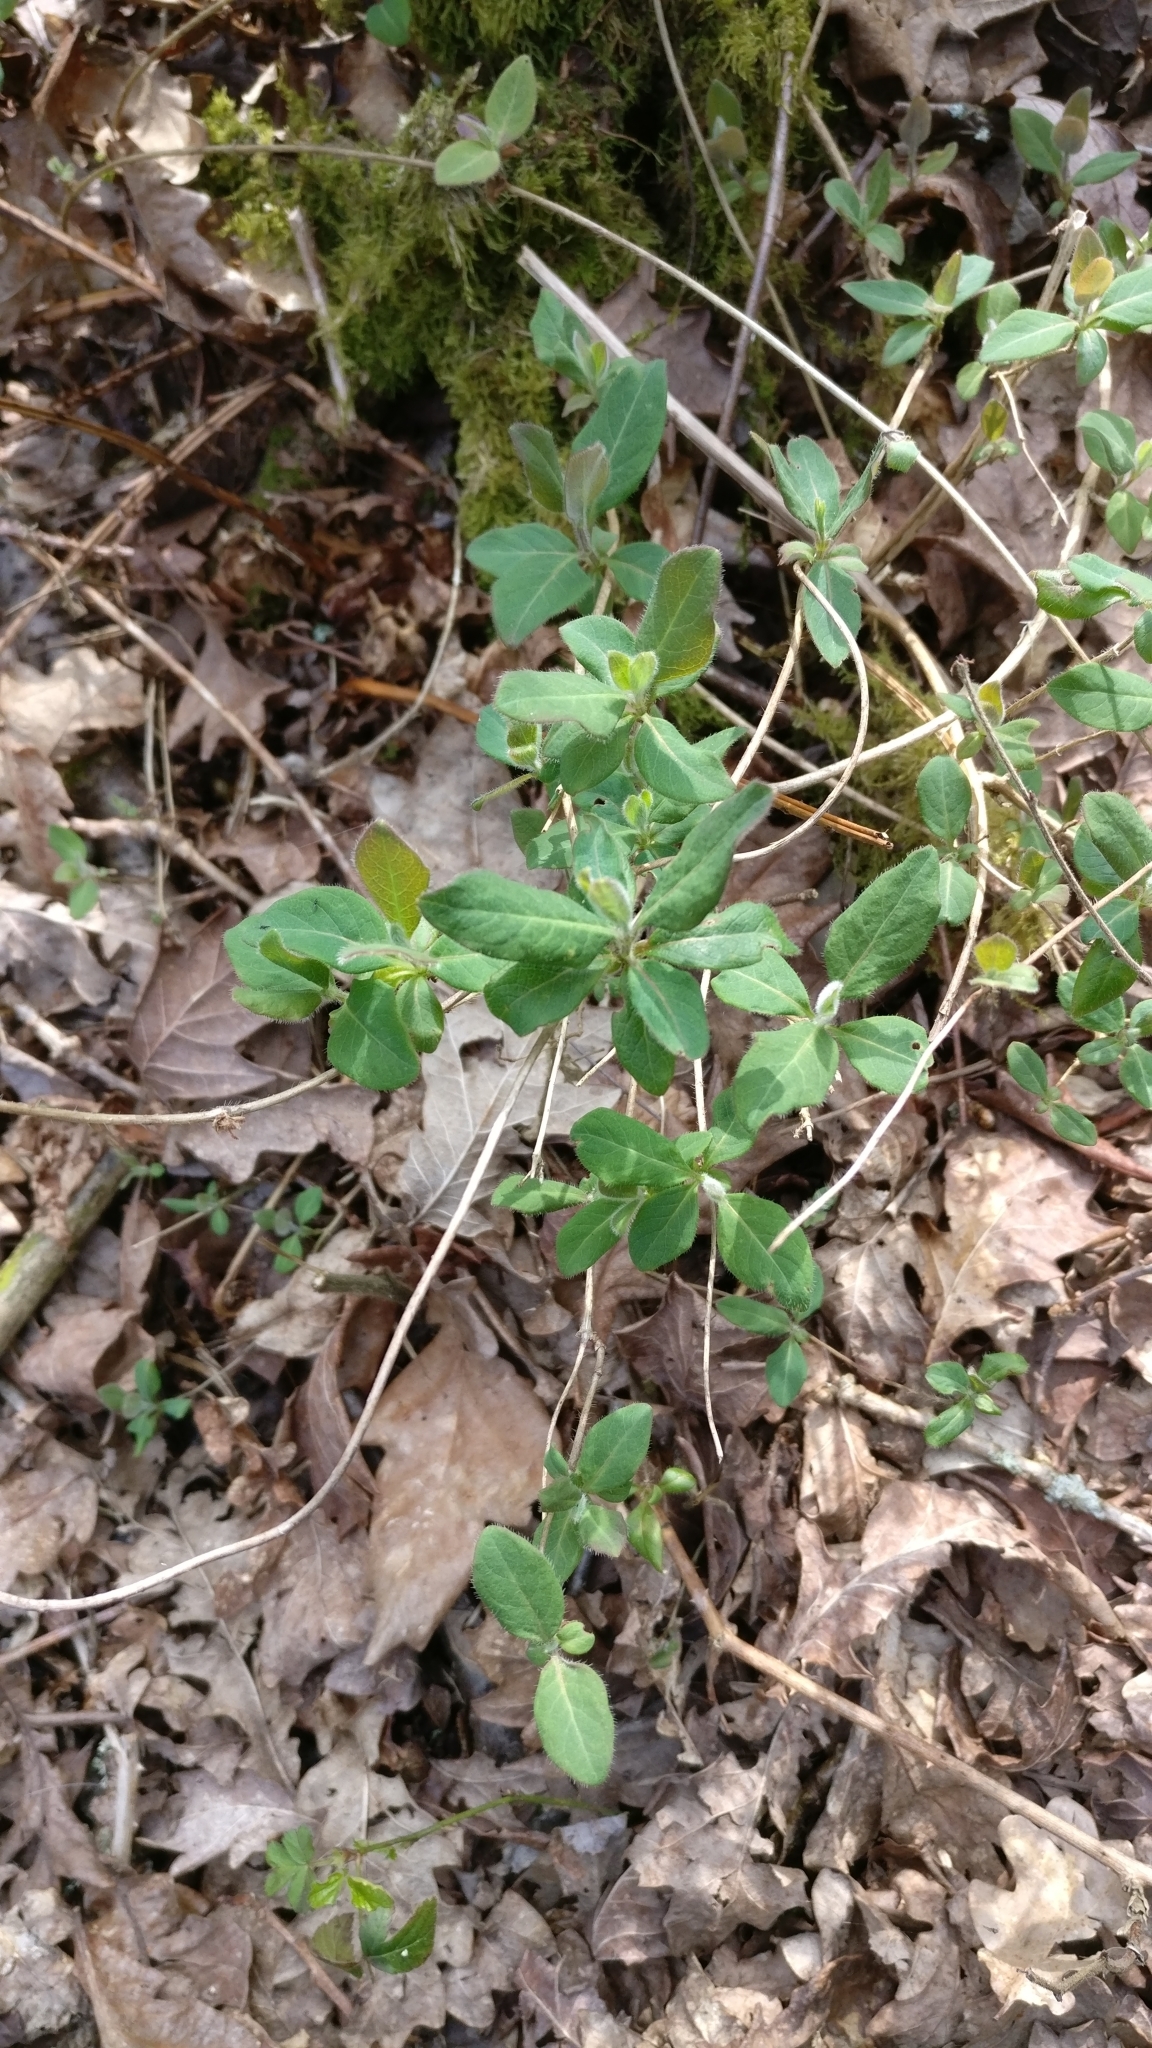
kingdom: Plantae
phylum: Tracheophyta
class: Magnoliopsida
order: Dipsacales
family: Caprifoliaceae
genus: Lonicera
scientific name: Lonicera periclymenum
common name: European honeysuckle
